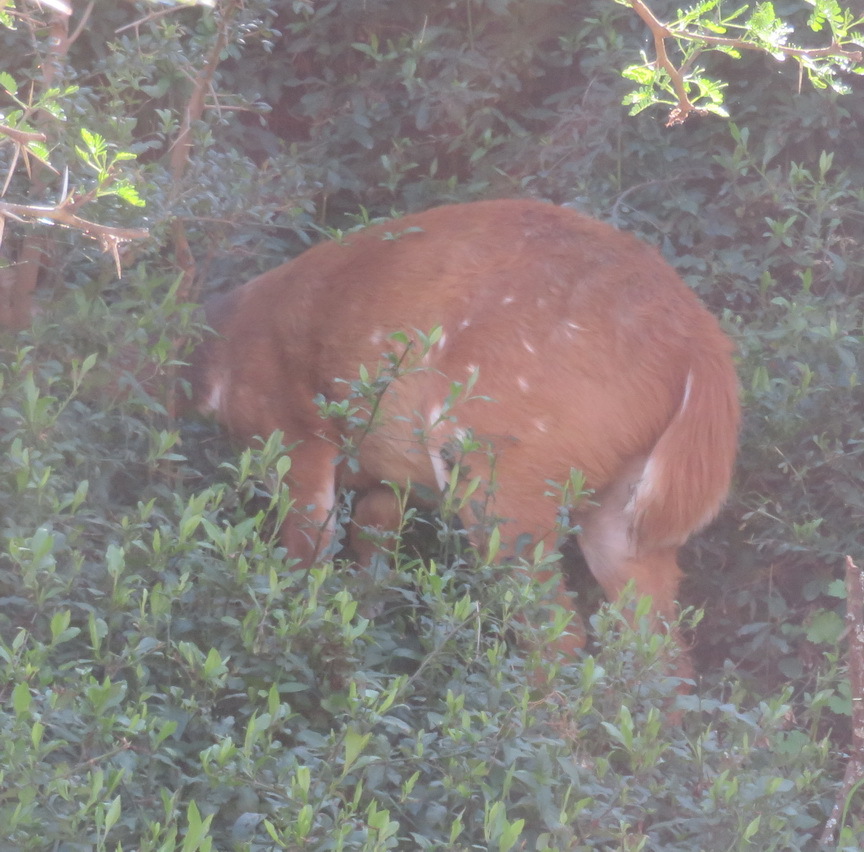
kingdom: Animalia
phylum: Chordata
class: Mammalia
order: Artiodactyla
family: Bovidae
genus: Tragelaphus
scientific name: Tragelaphus scriptus
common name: Bushbuck
